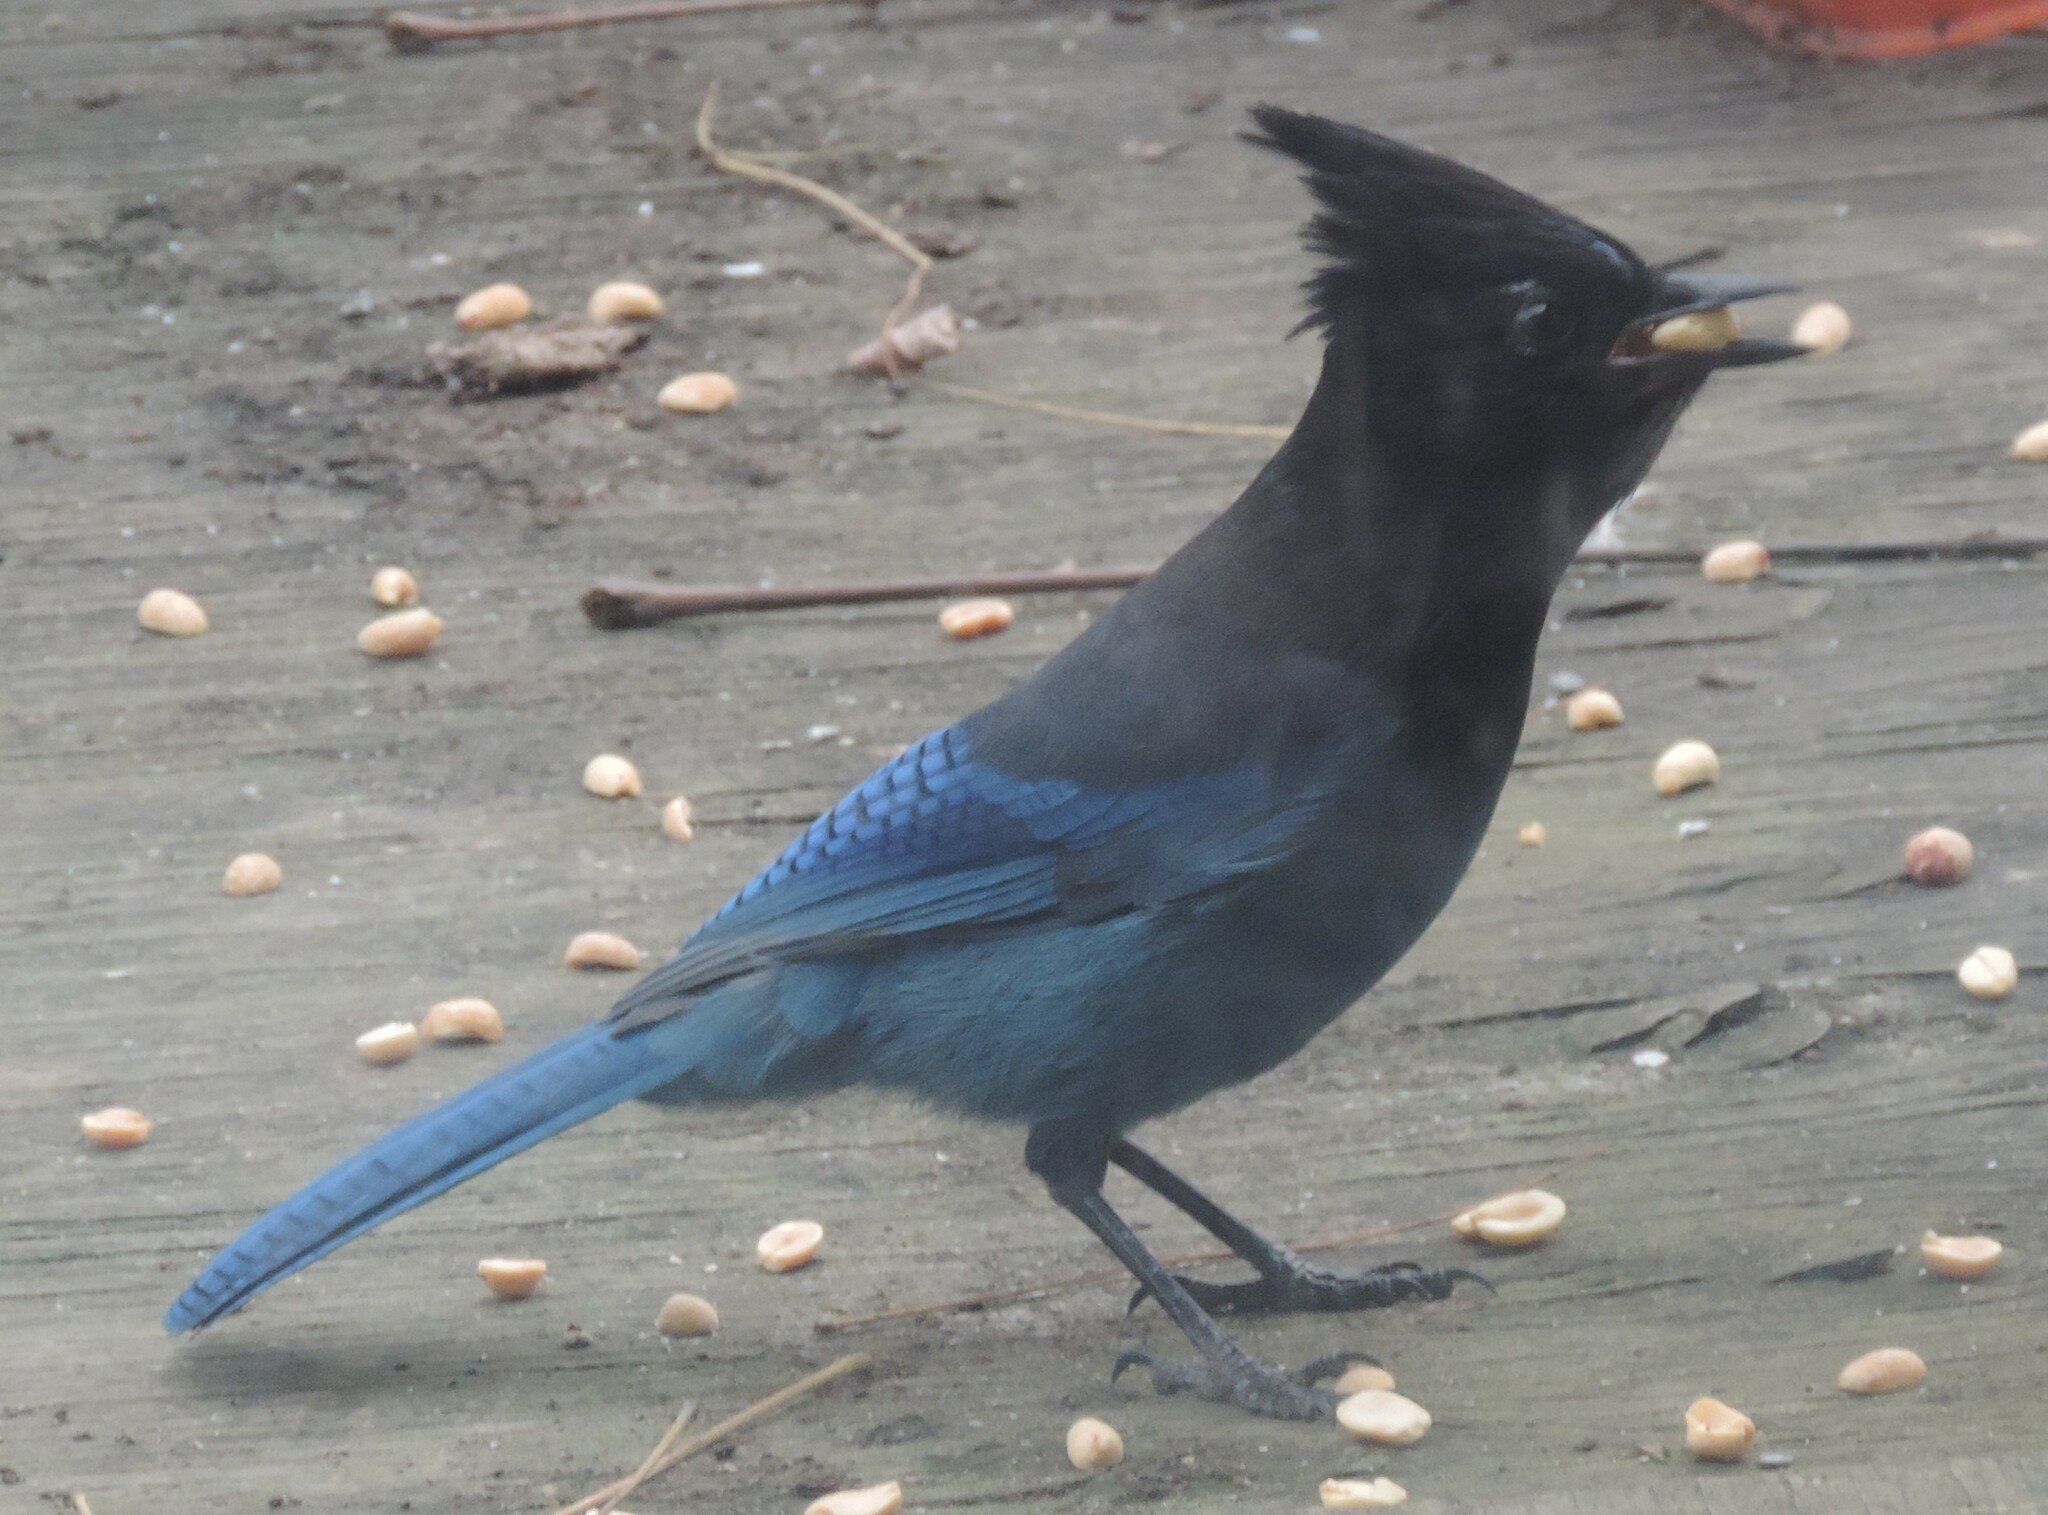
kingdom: Animalia
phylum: Chordata
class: Aves
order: Passeriformes
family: Corvidae
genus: Cyanocitta
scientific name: Cyanocitta stelleri
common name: Steller's jay
